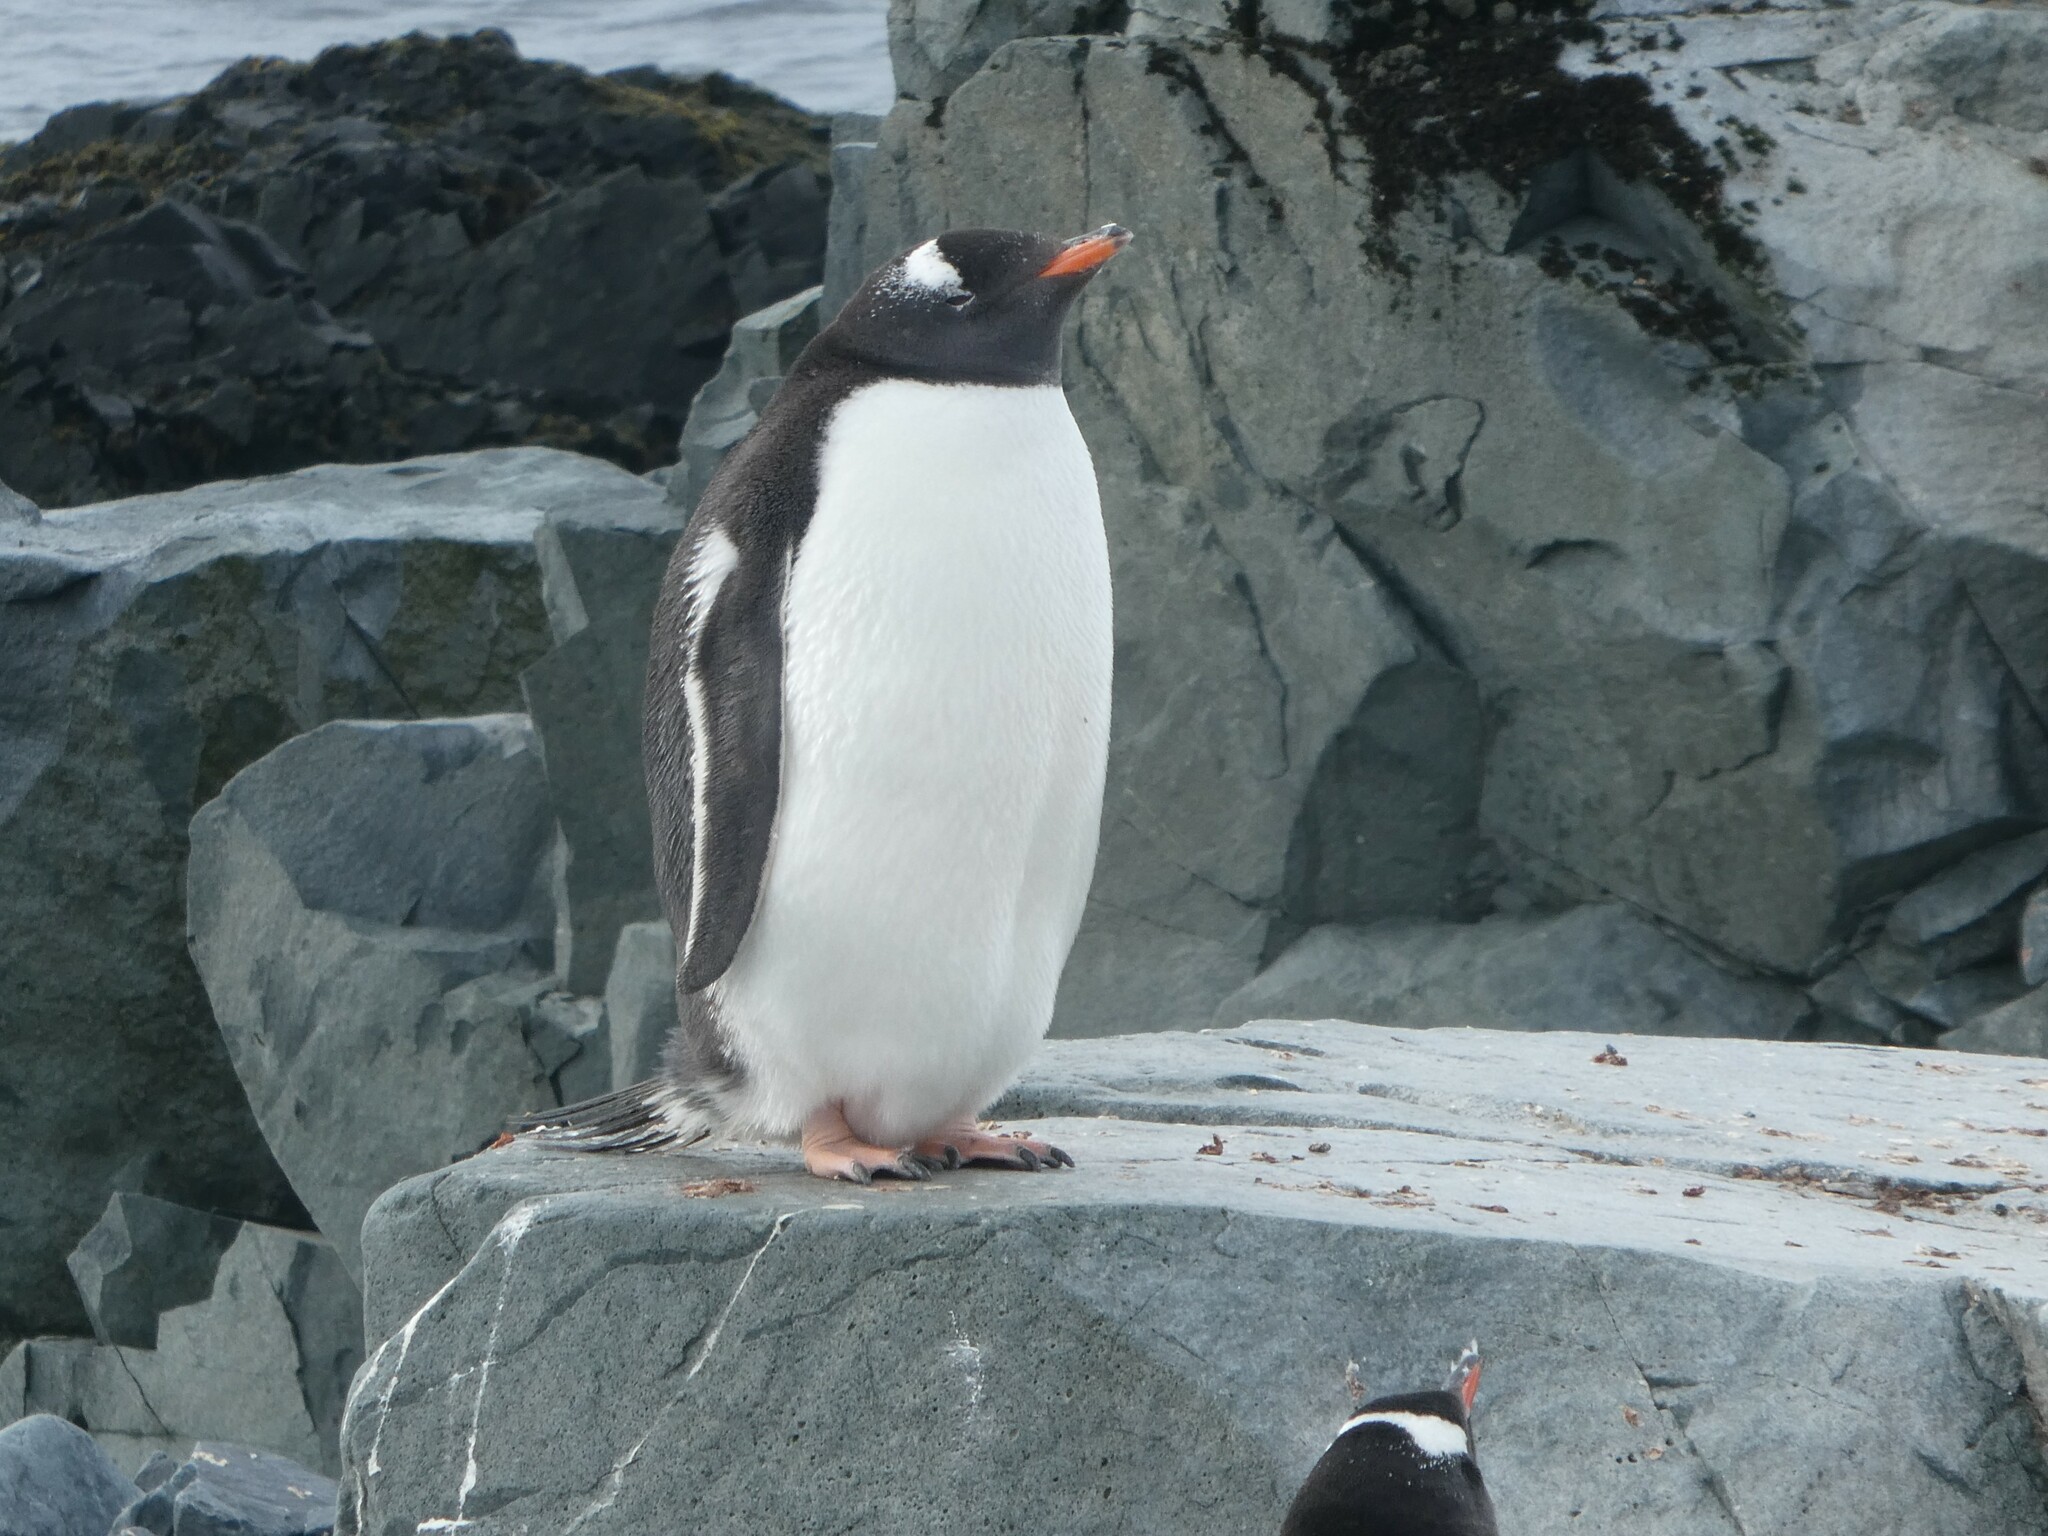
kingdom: Animalia
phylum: Chordata
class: Aves
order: Sphenisciformes
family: Spheniscidae
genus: Pygoscelis
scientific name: Pygoscelis papua
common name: Gentoo penguin
